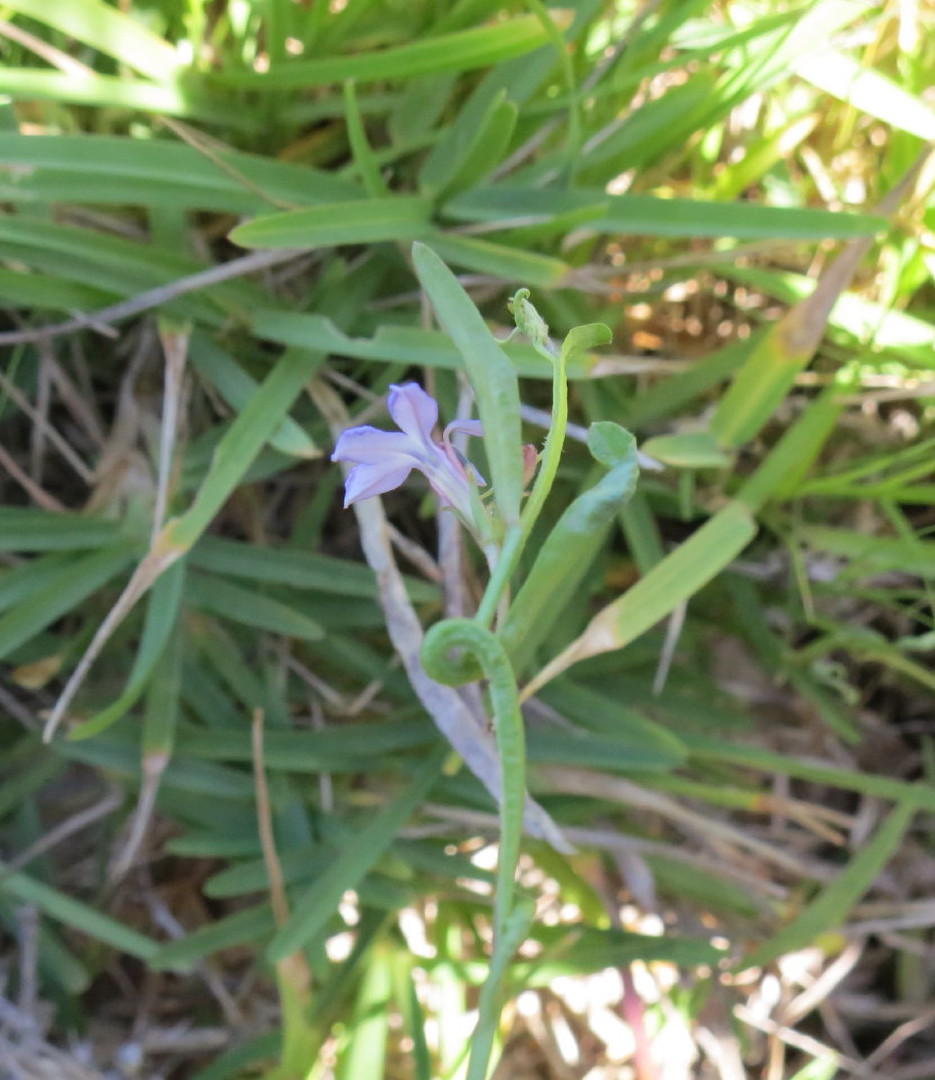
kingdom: Plantae
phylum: Tracheophyta
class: Magnoliopsida
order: Asterales
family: Campanulaceae
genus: Lobelia
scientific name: Lobelia anceps
